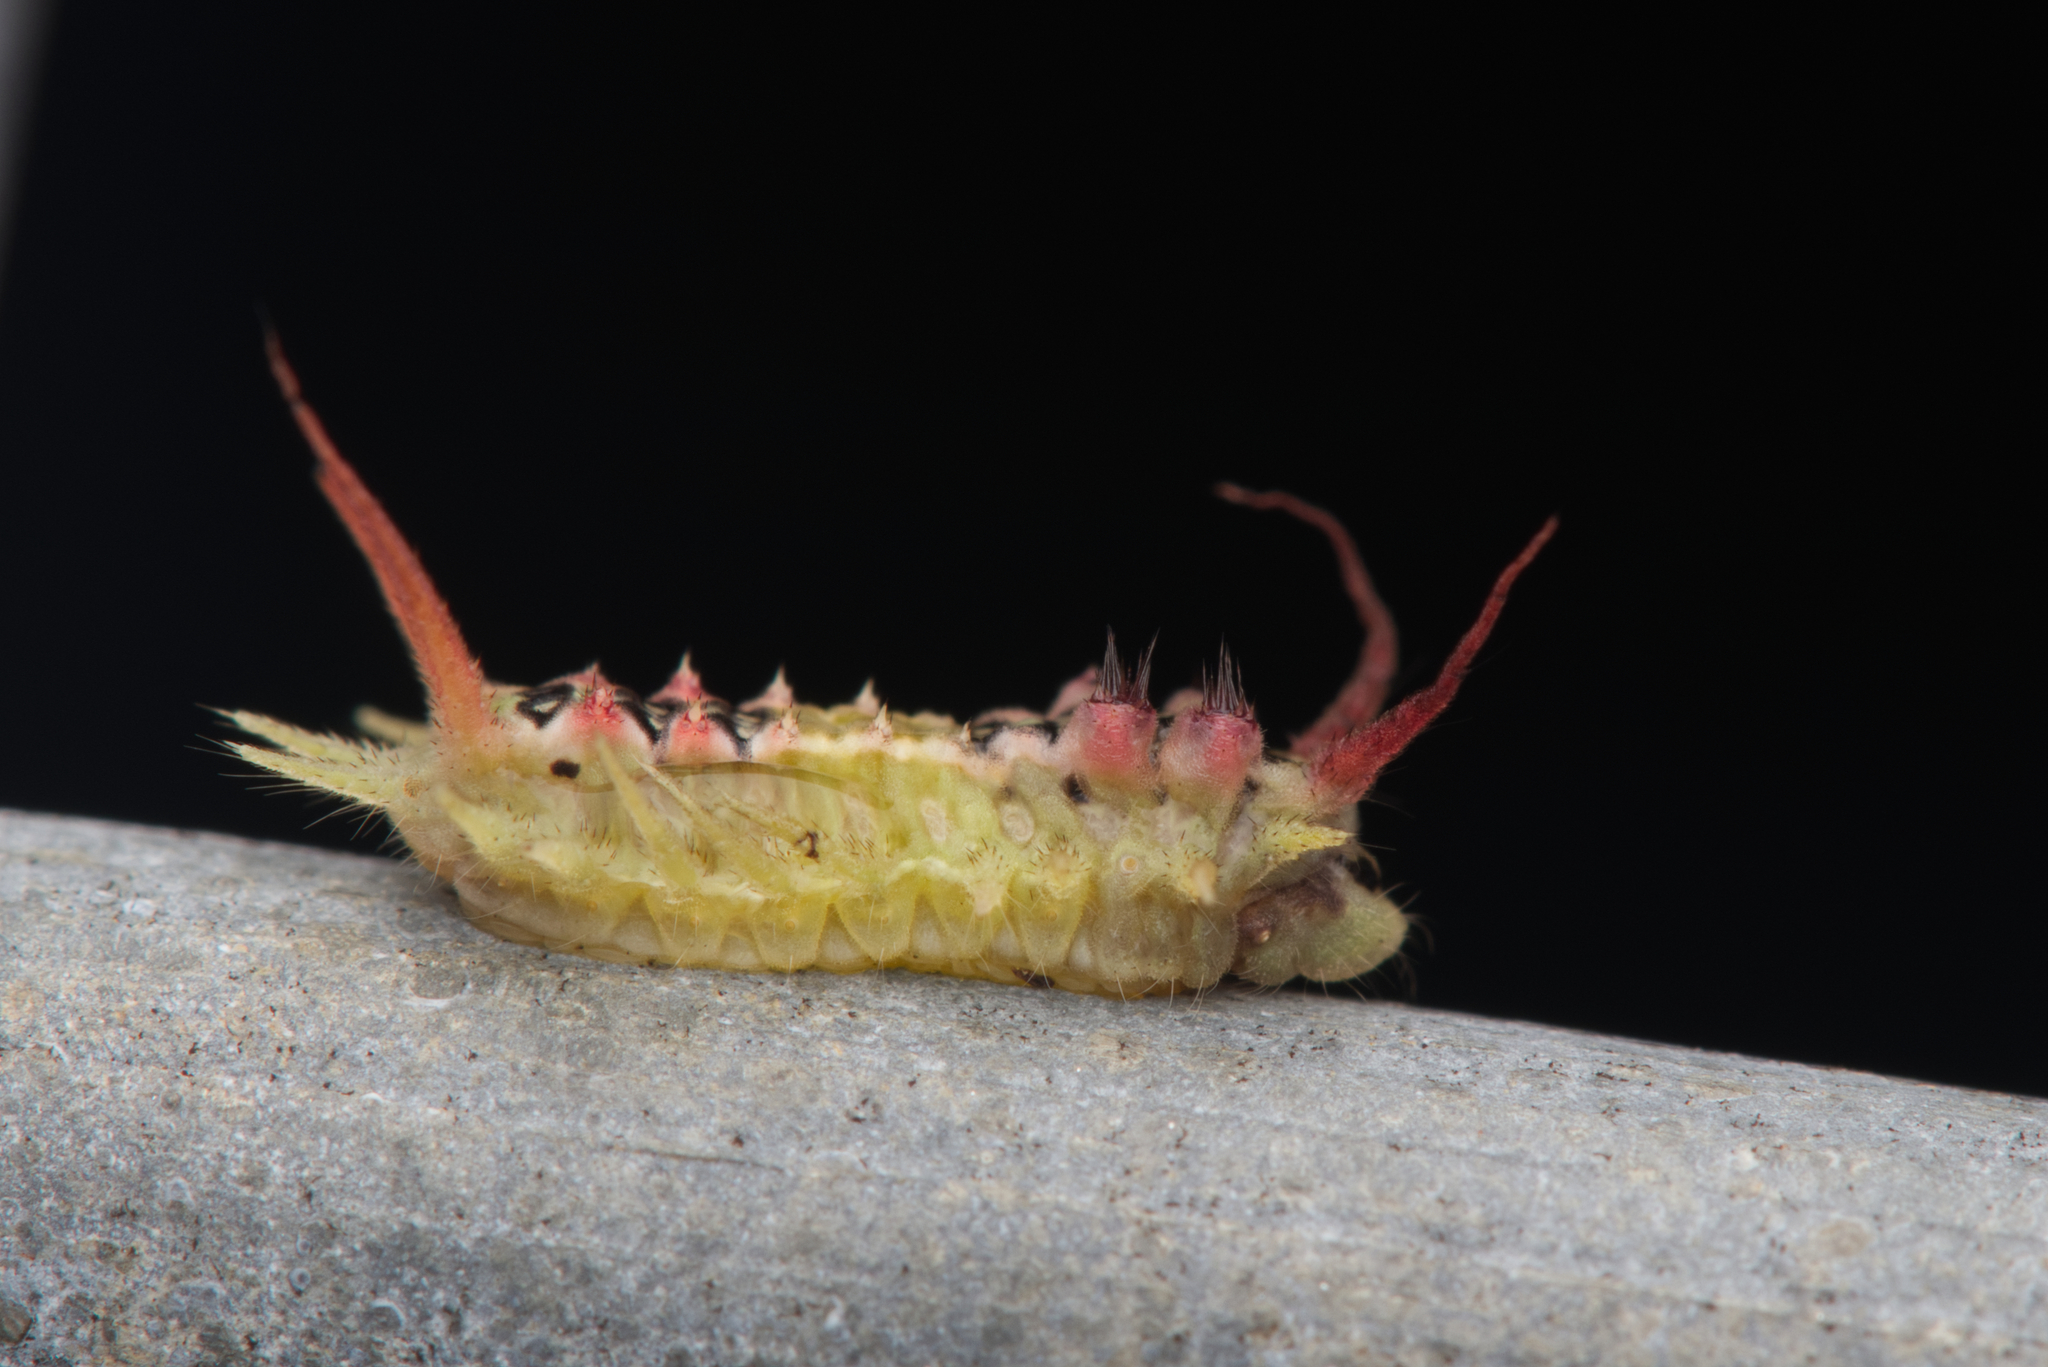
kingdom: Animalia
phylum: Arthropoda
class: Insecta
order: Lepidoptera
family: Limacodidae
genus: Doratifera
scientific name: Doratifera quadriguttata
